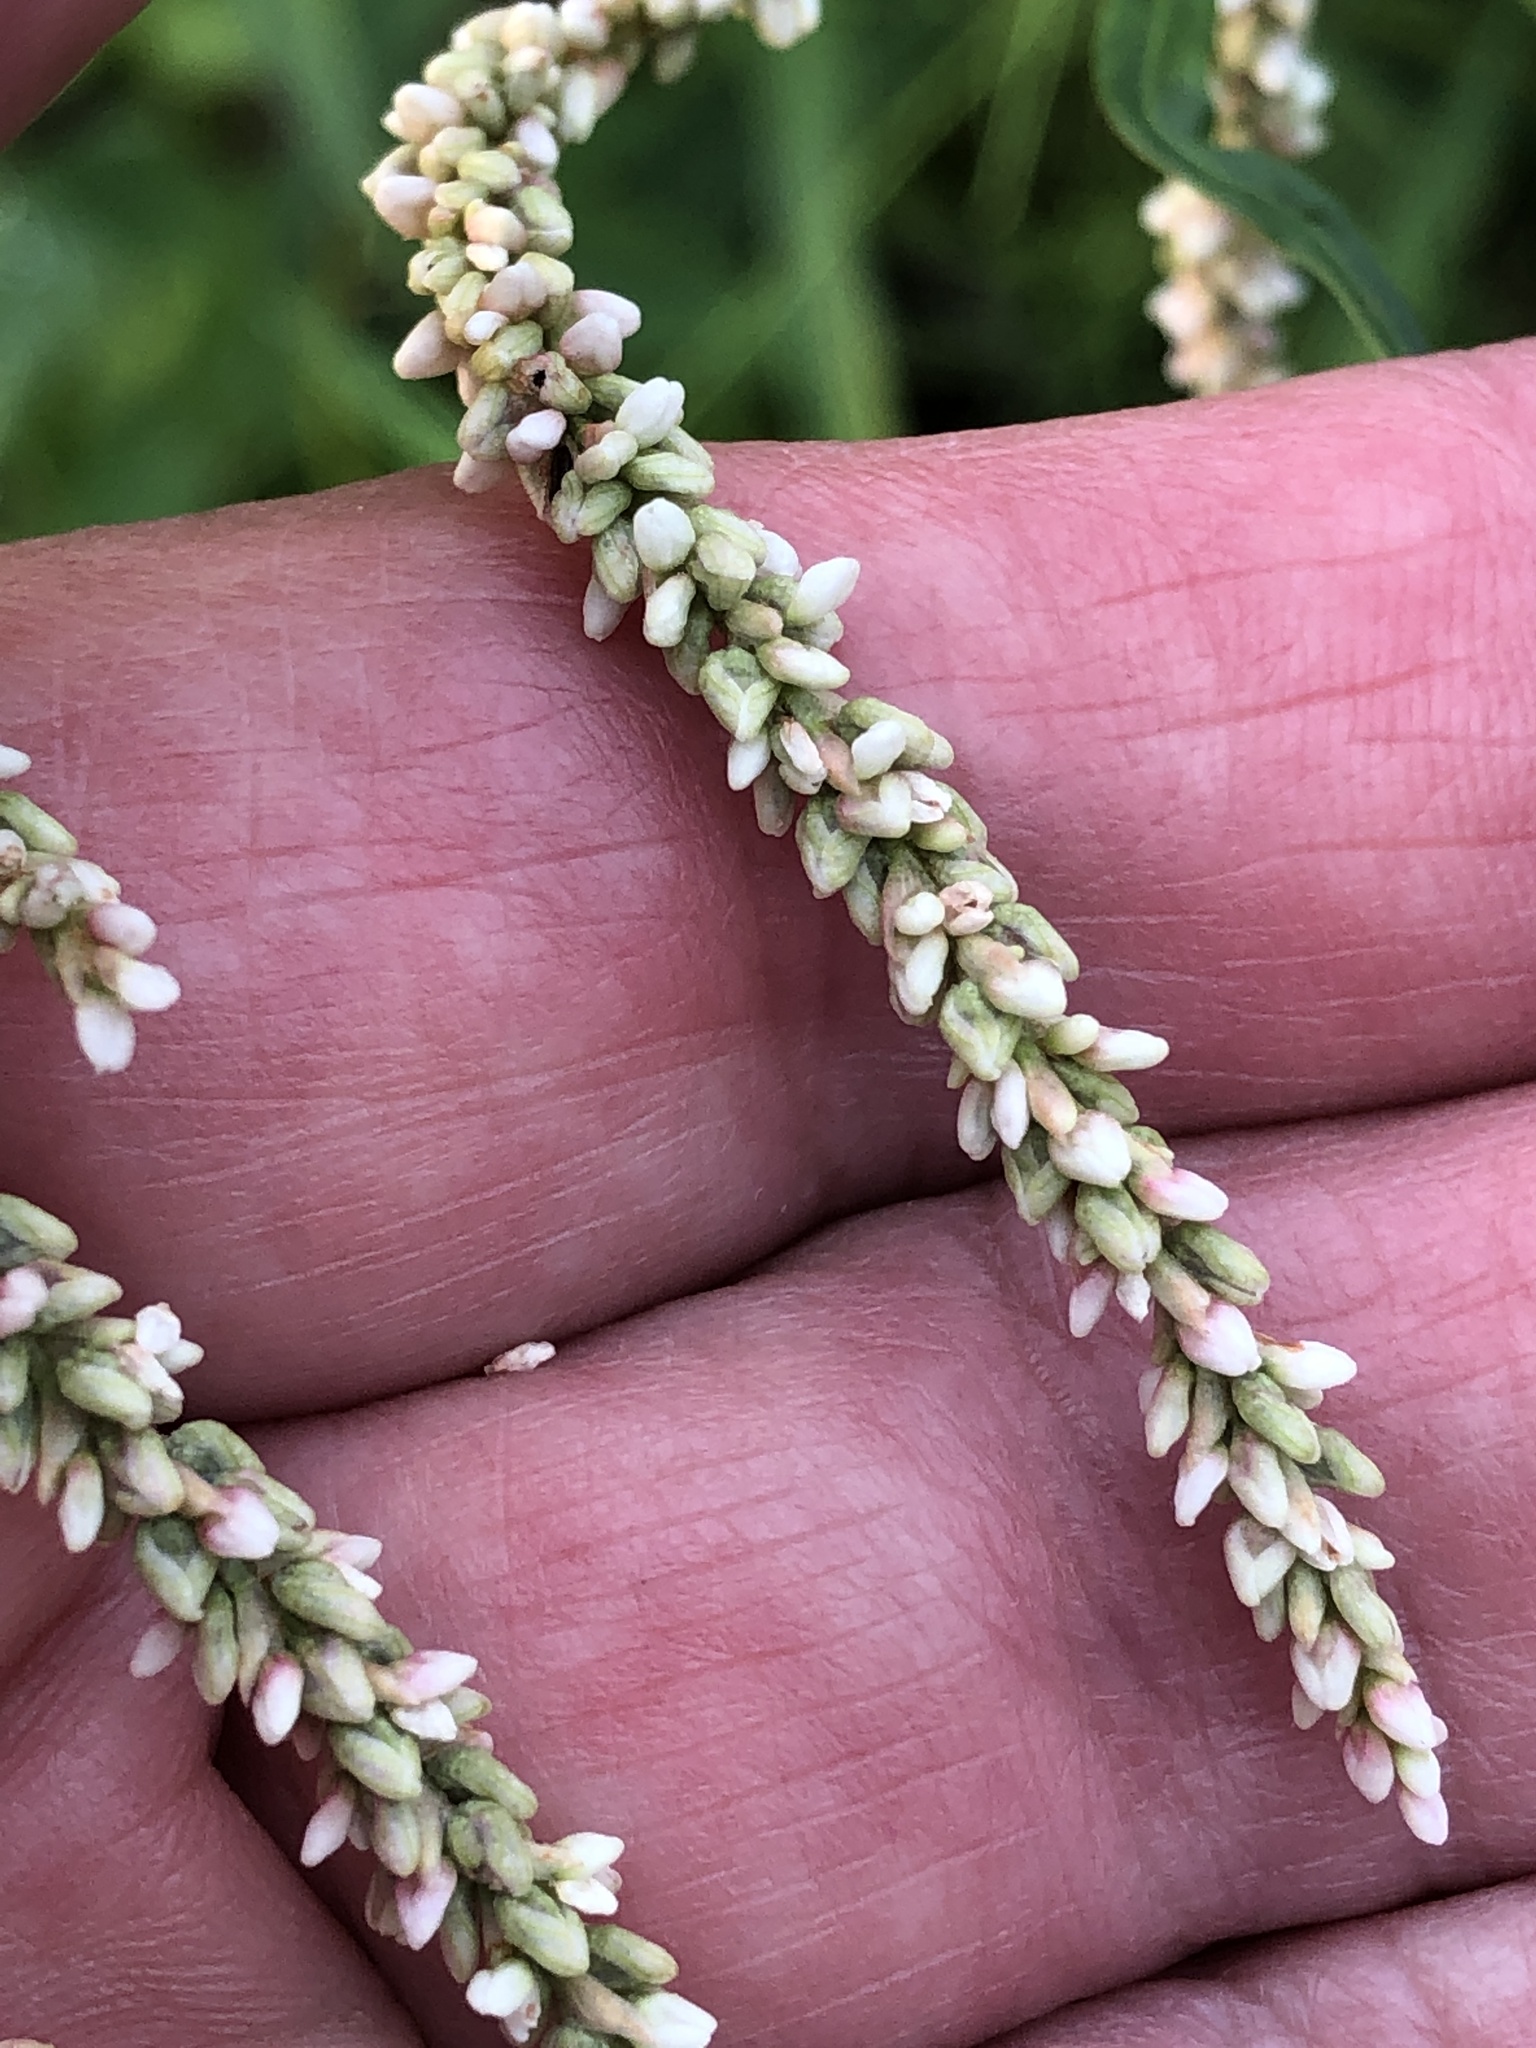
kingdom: Plantae
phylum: Tracheophyta
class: Magnoliopsida
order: Caryophyllales
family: Polygonaceae
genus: Persicaria
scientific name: Persicaria lapathifolia
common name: Curlytop knotweed
